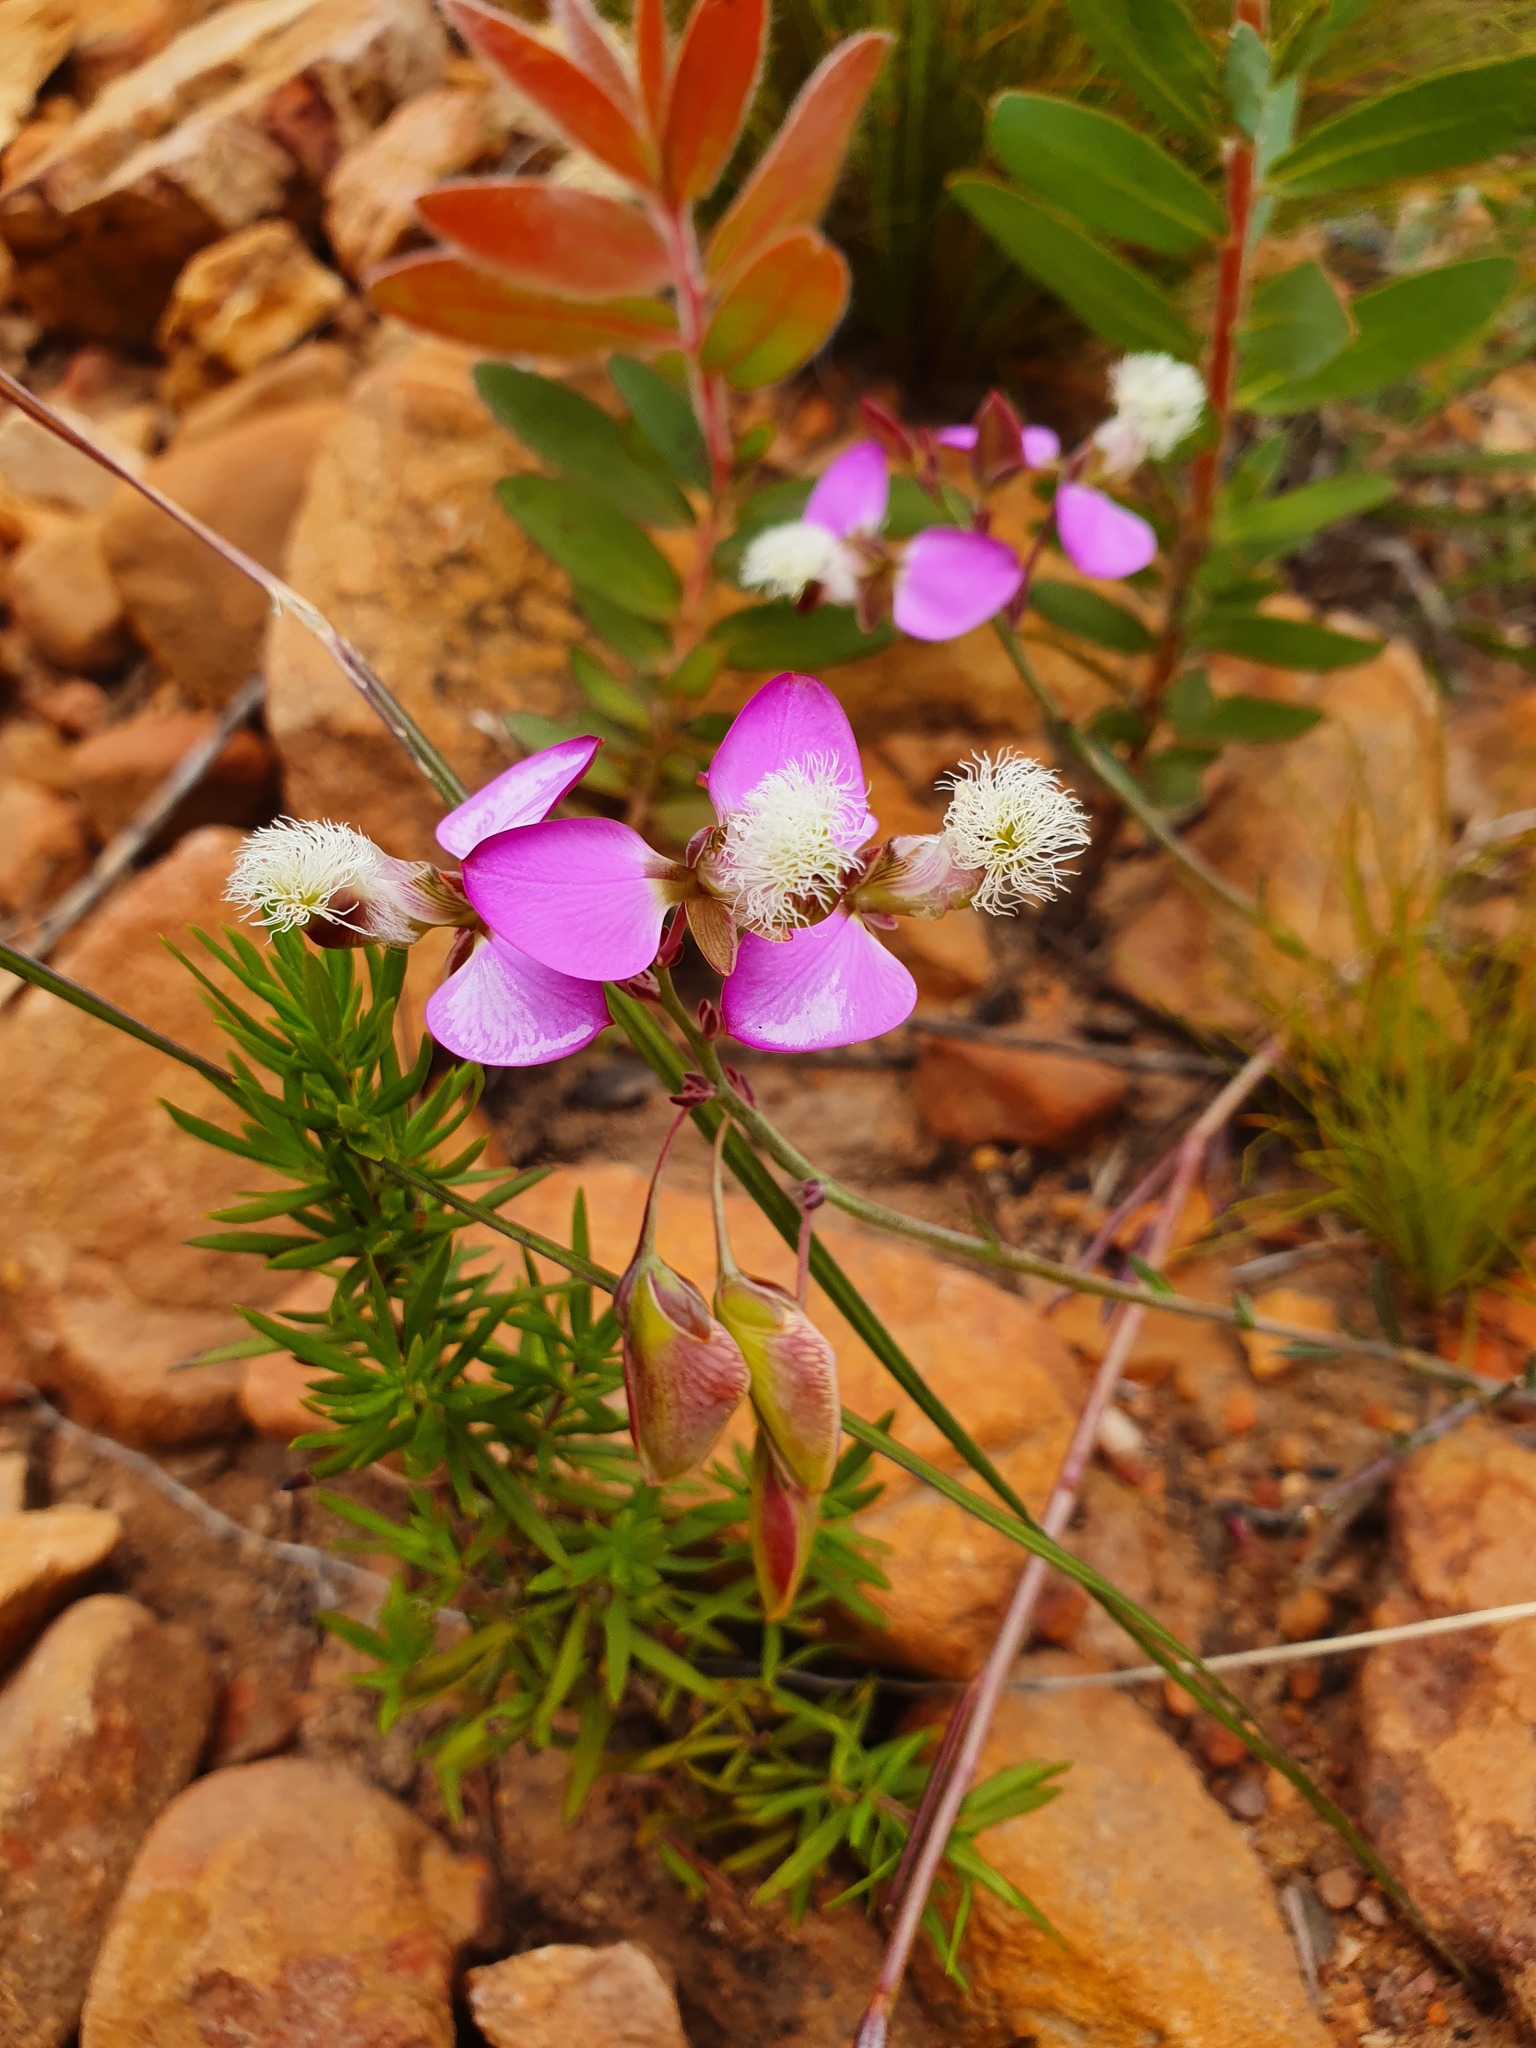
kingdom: Plantae
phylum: Tracheophyta
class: Magnoliopsida
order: Fabales
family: Polygalaceae
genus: Polygala
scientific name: Polygala bracteolata
